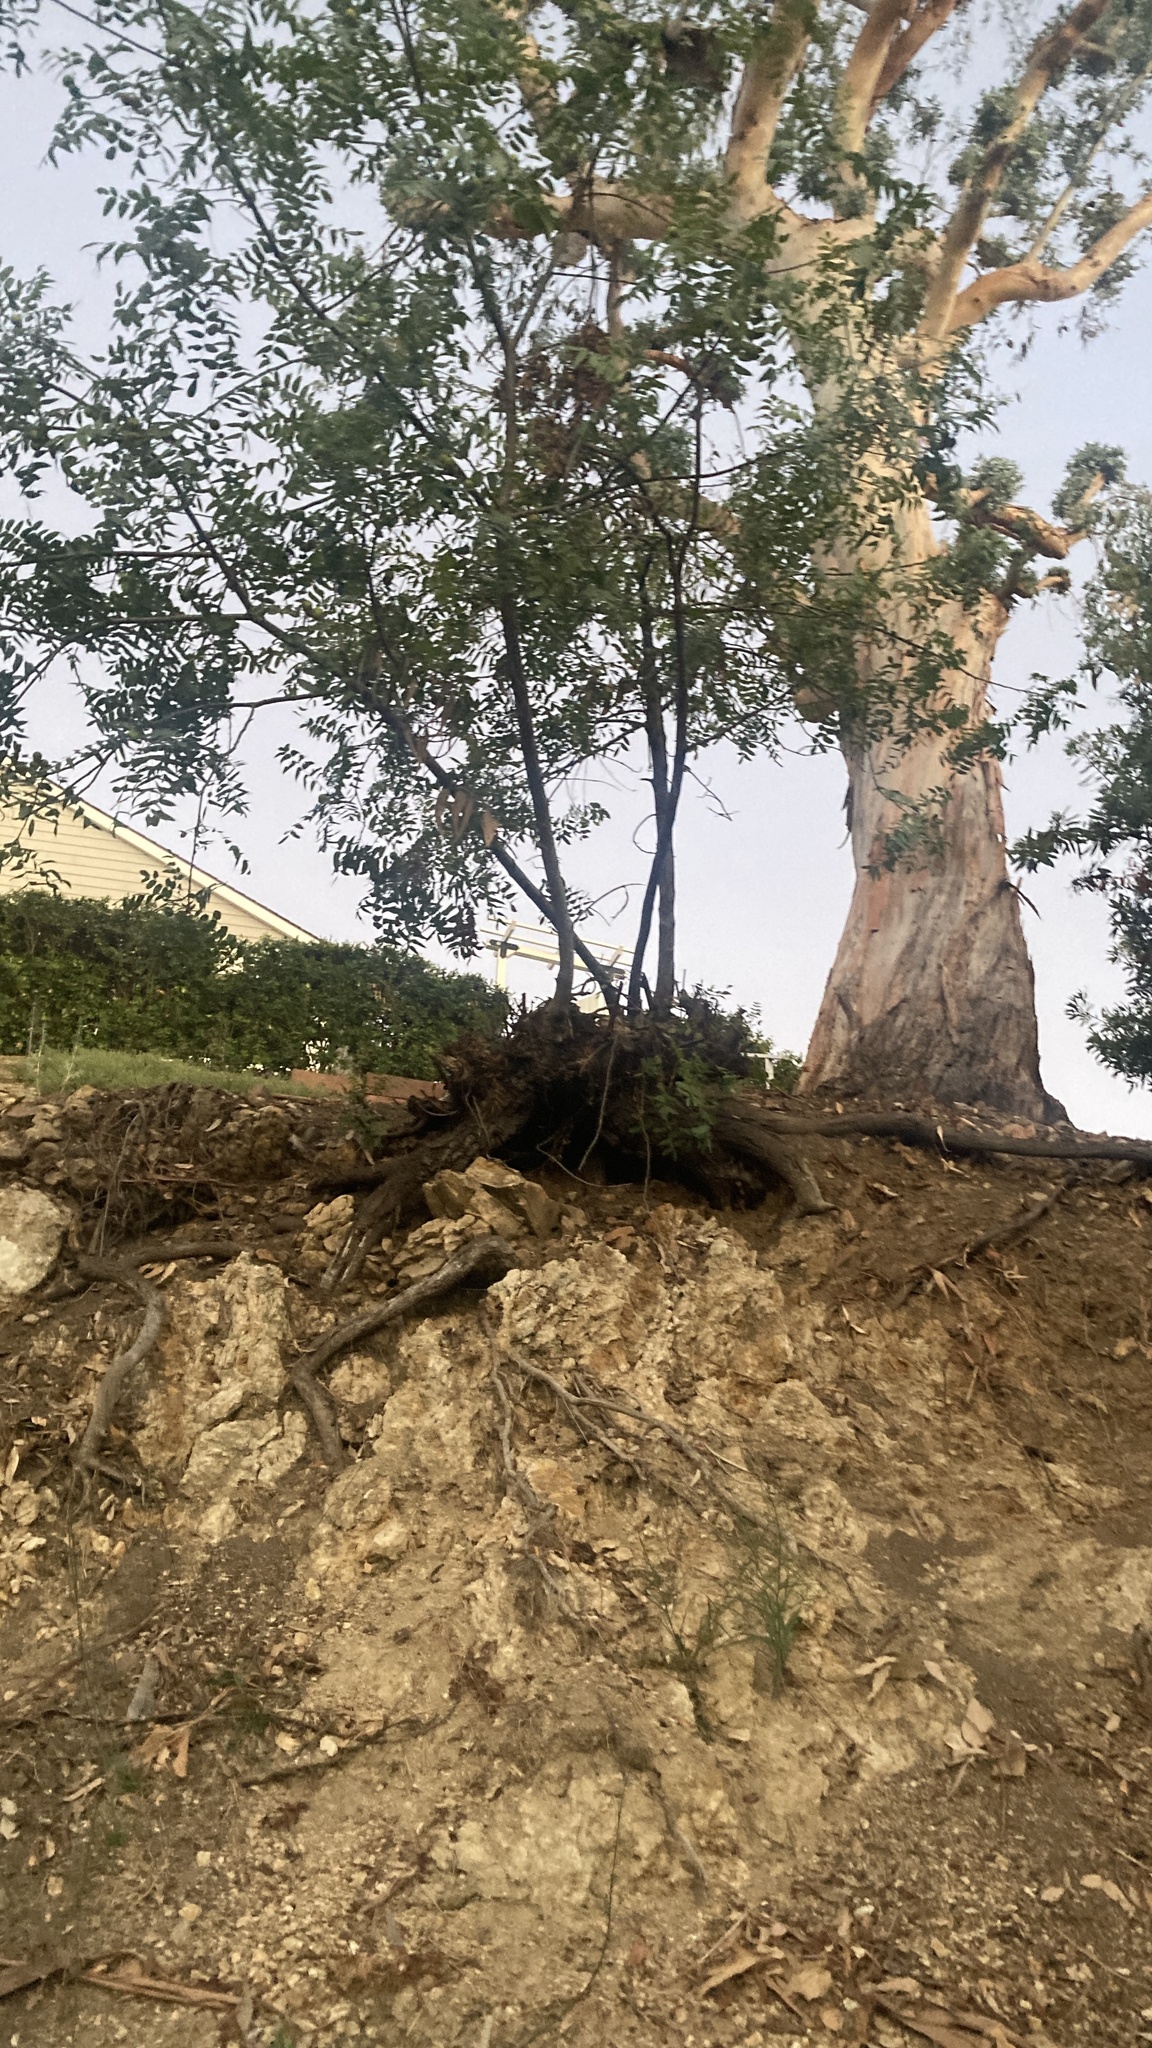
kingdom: Plantae
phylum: Tracheophyta
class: Magnoliopsida
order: Fagales
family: Juglandaceae
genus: Juglans
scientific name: Juglans californica
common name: Southern california black walnut
